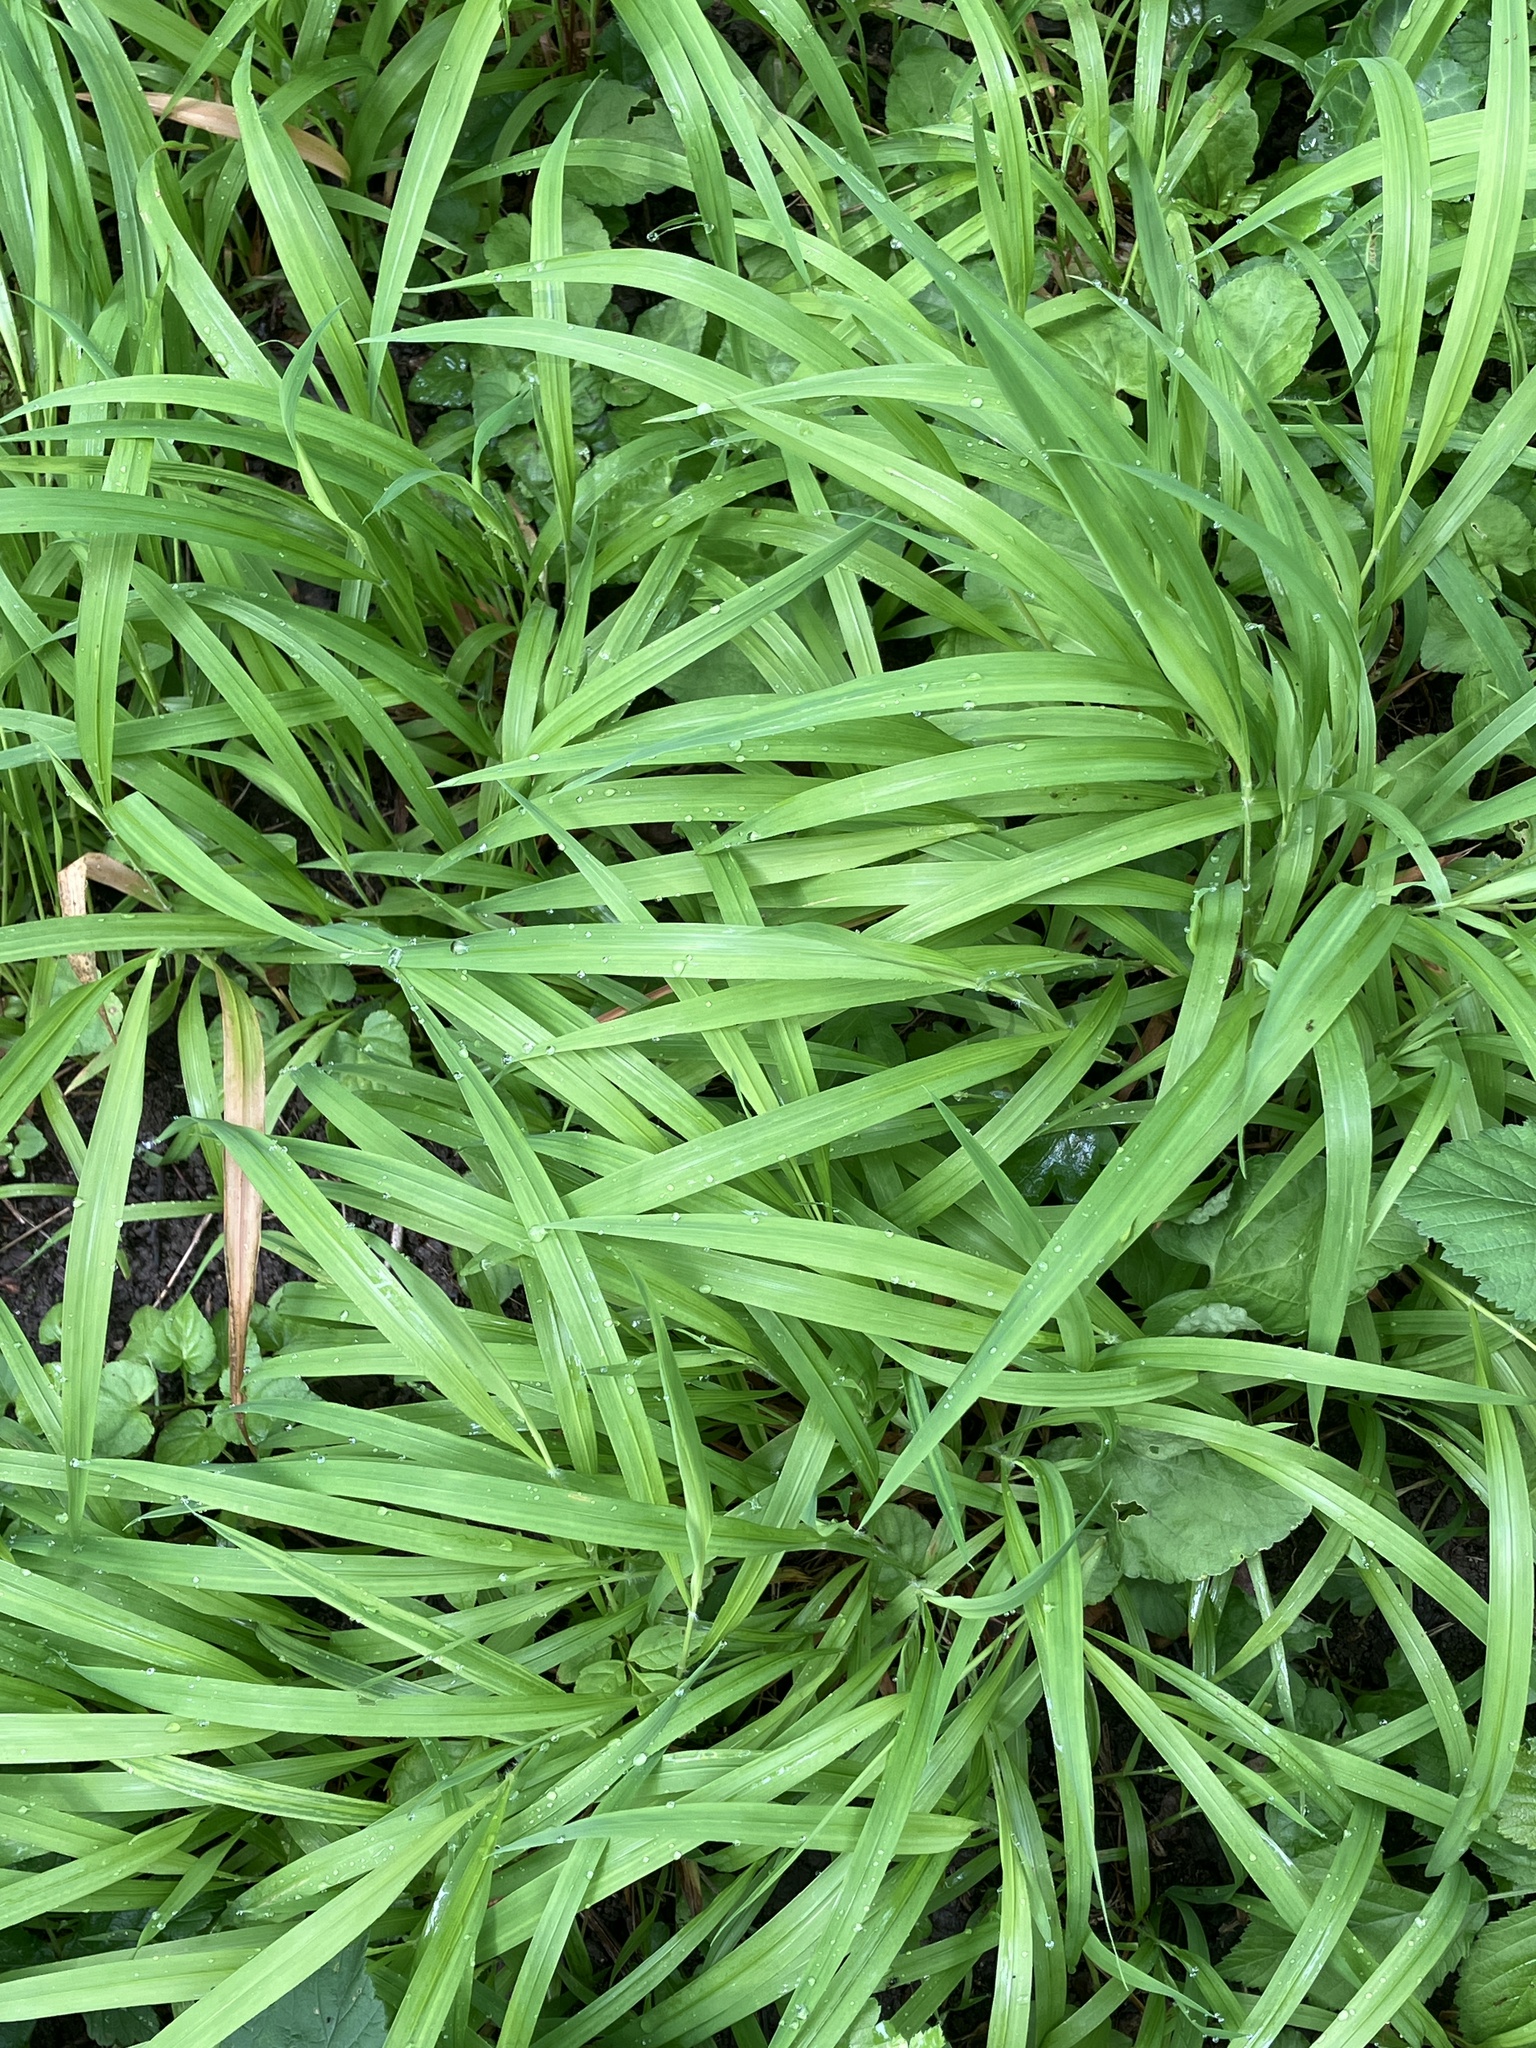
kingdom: Plantae
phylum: Tracheophyta
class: Liliopsida
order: Poales
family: Poaceae
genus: Brachypodium
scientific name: Brachypodium sylvaticum
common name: False-brome
